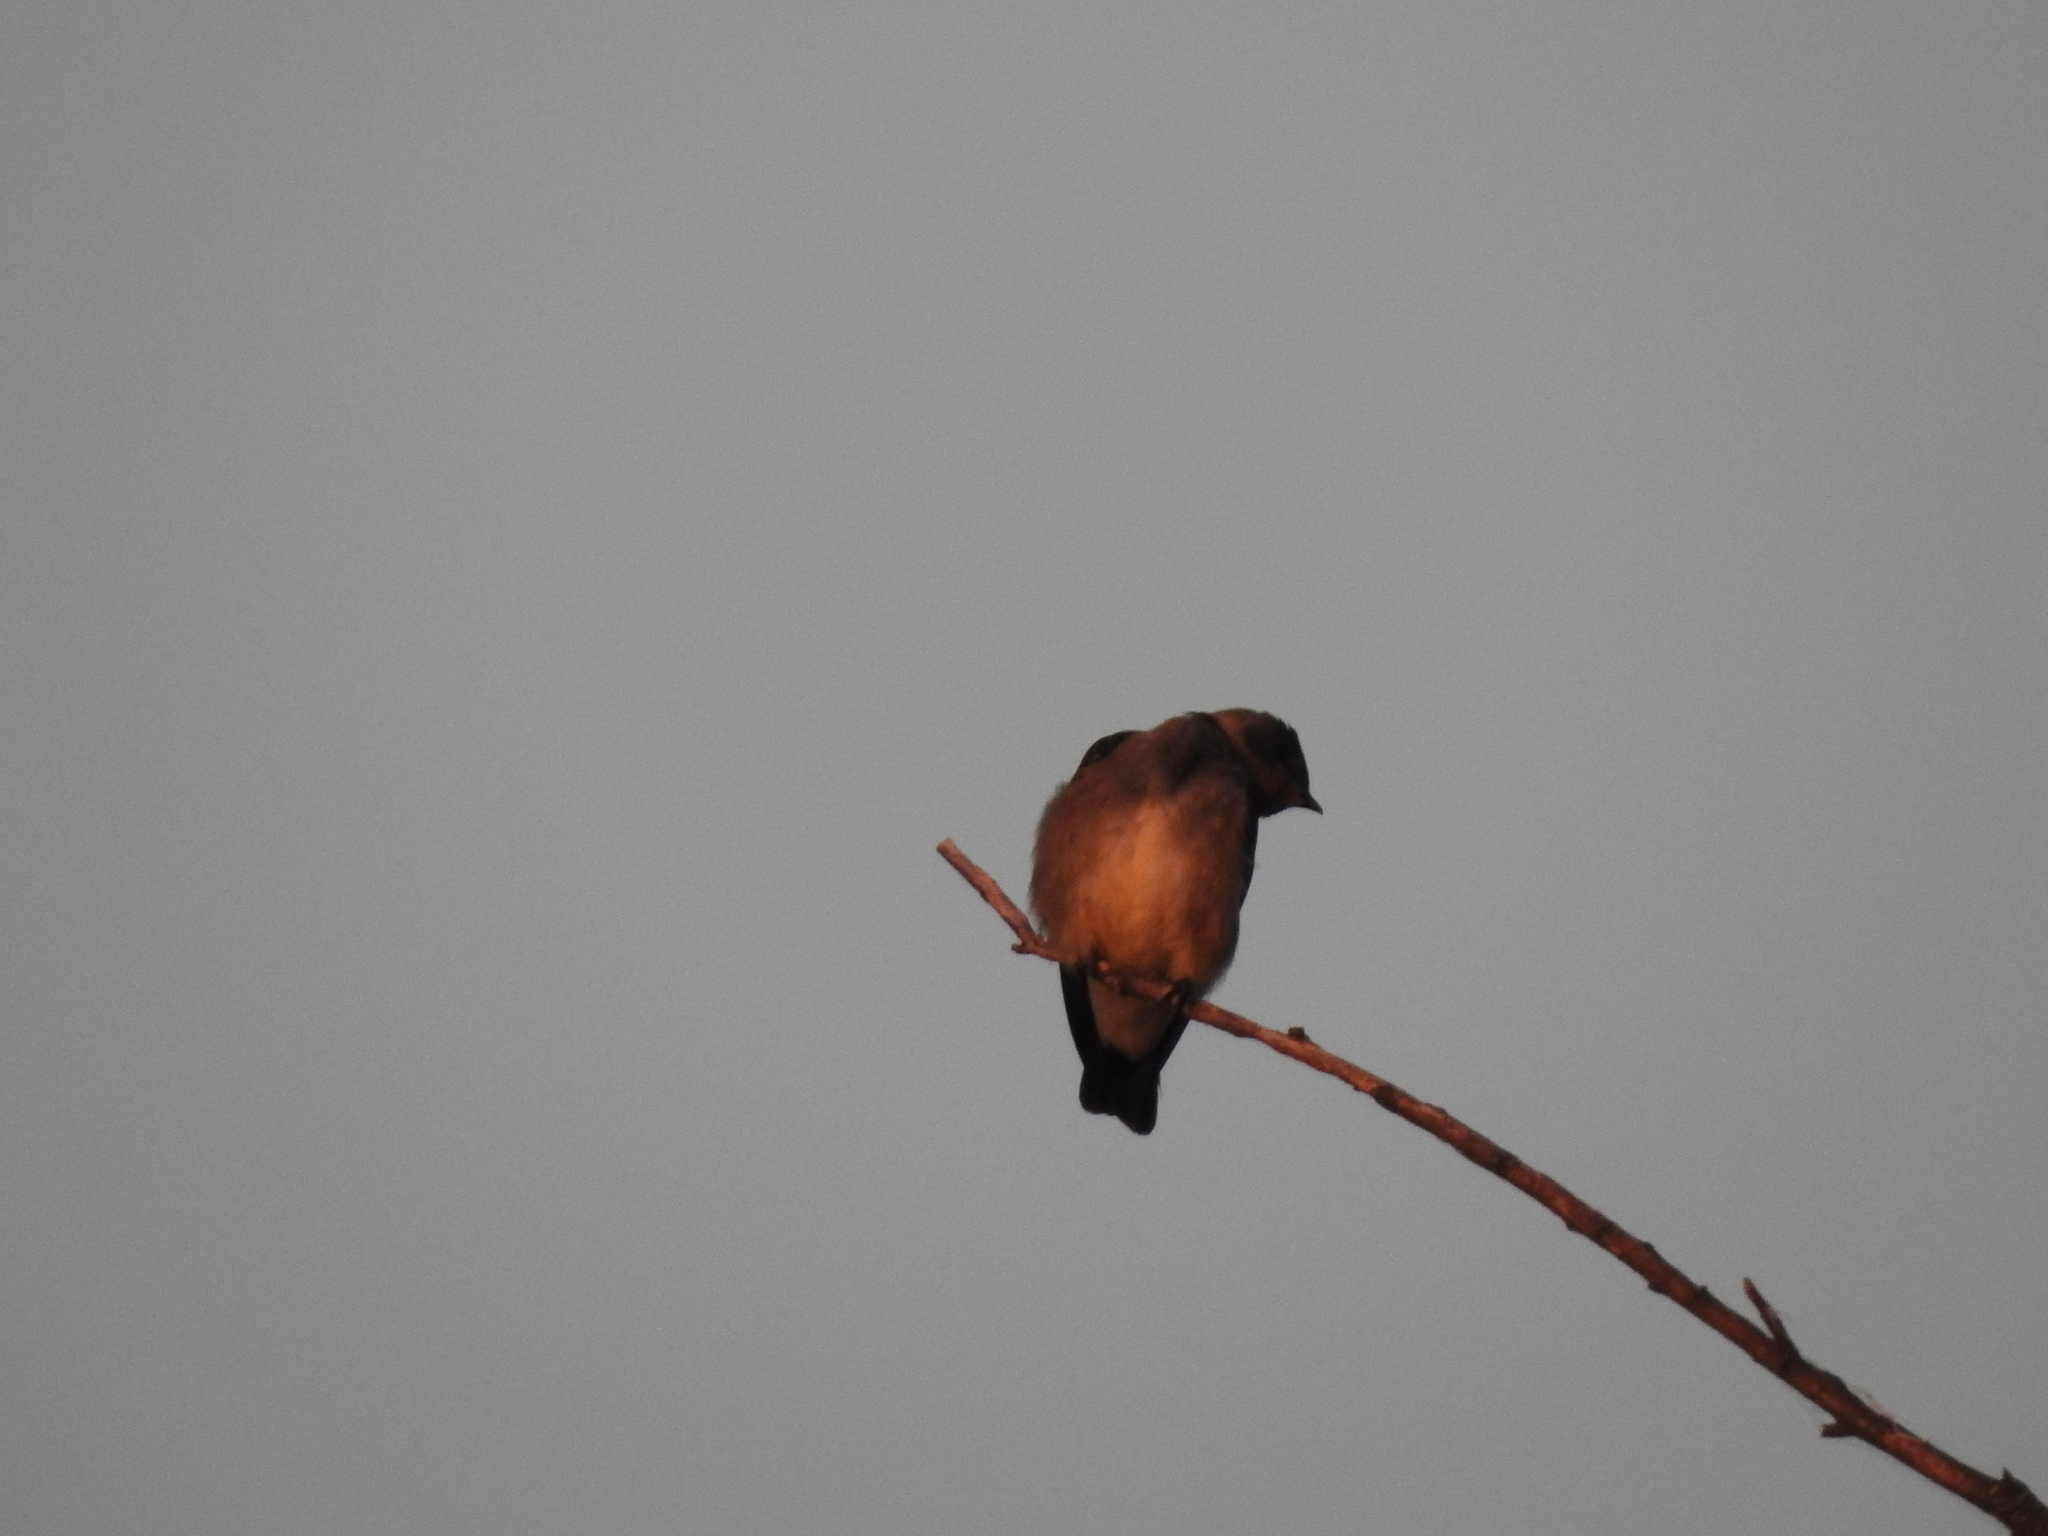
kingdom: Animalia
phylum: Chordata
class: Aves
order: Passeriformes
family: Hirundinidae
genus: Stelgidopteryx
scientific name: Stelgidopteryx ruficollis
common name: Southern rough-winged swallow
